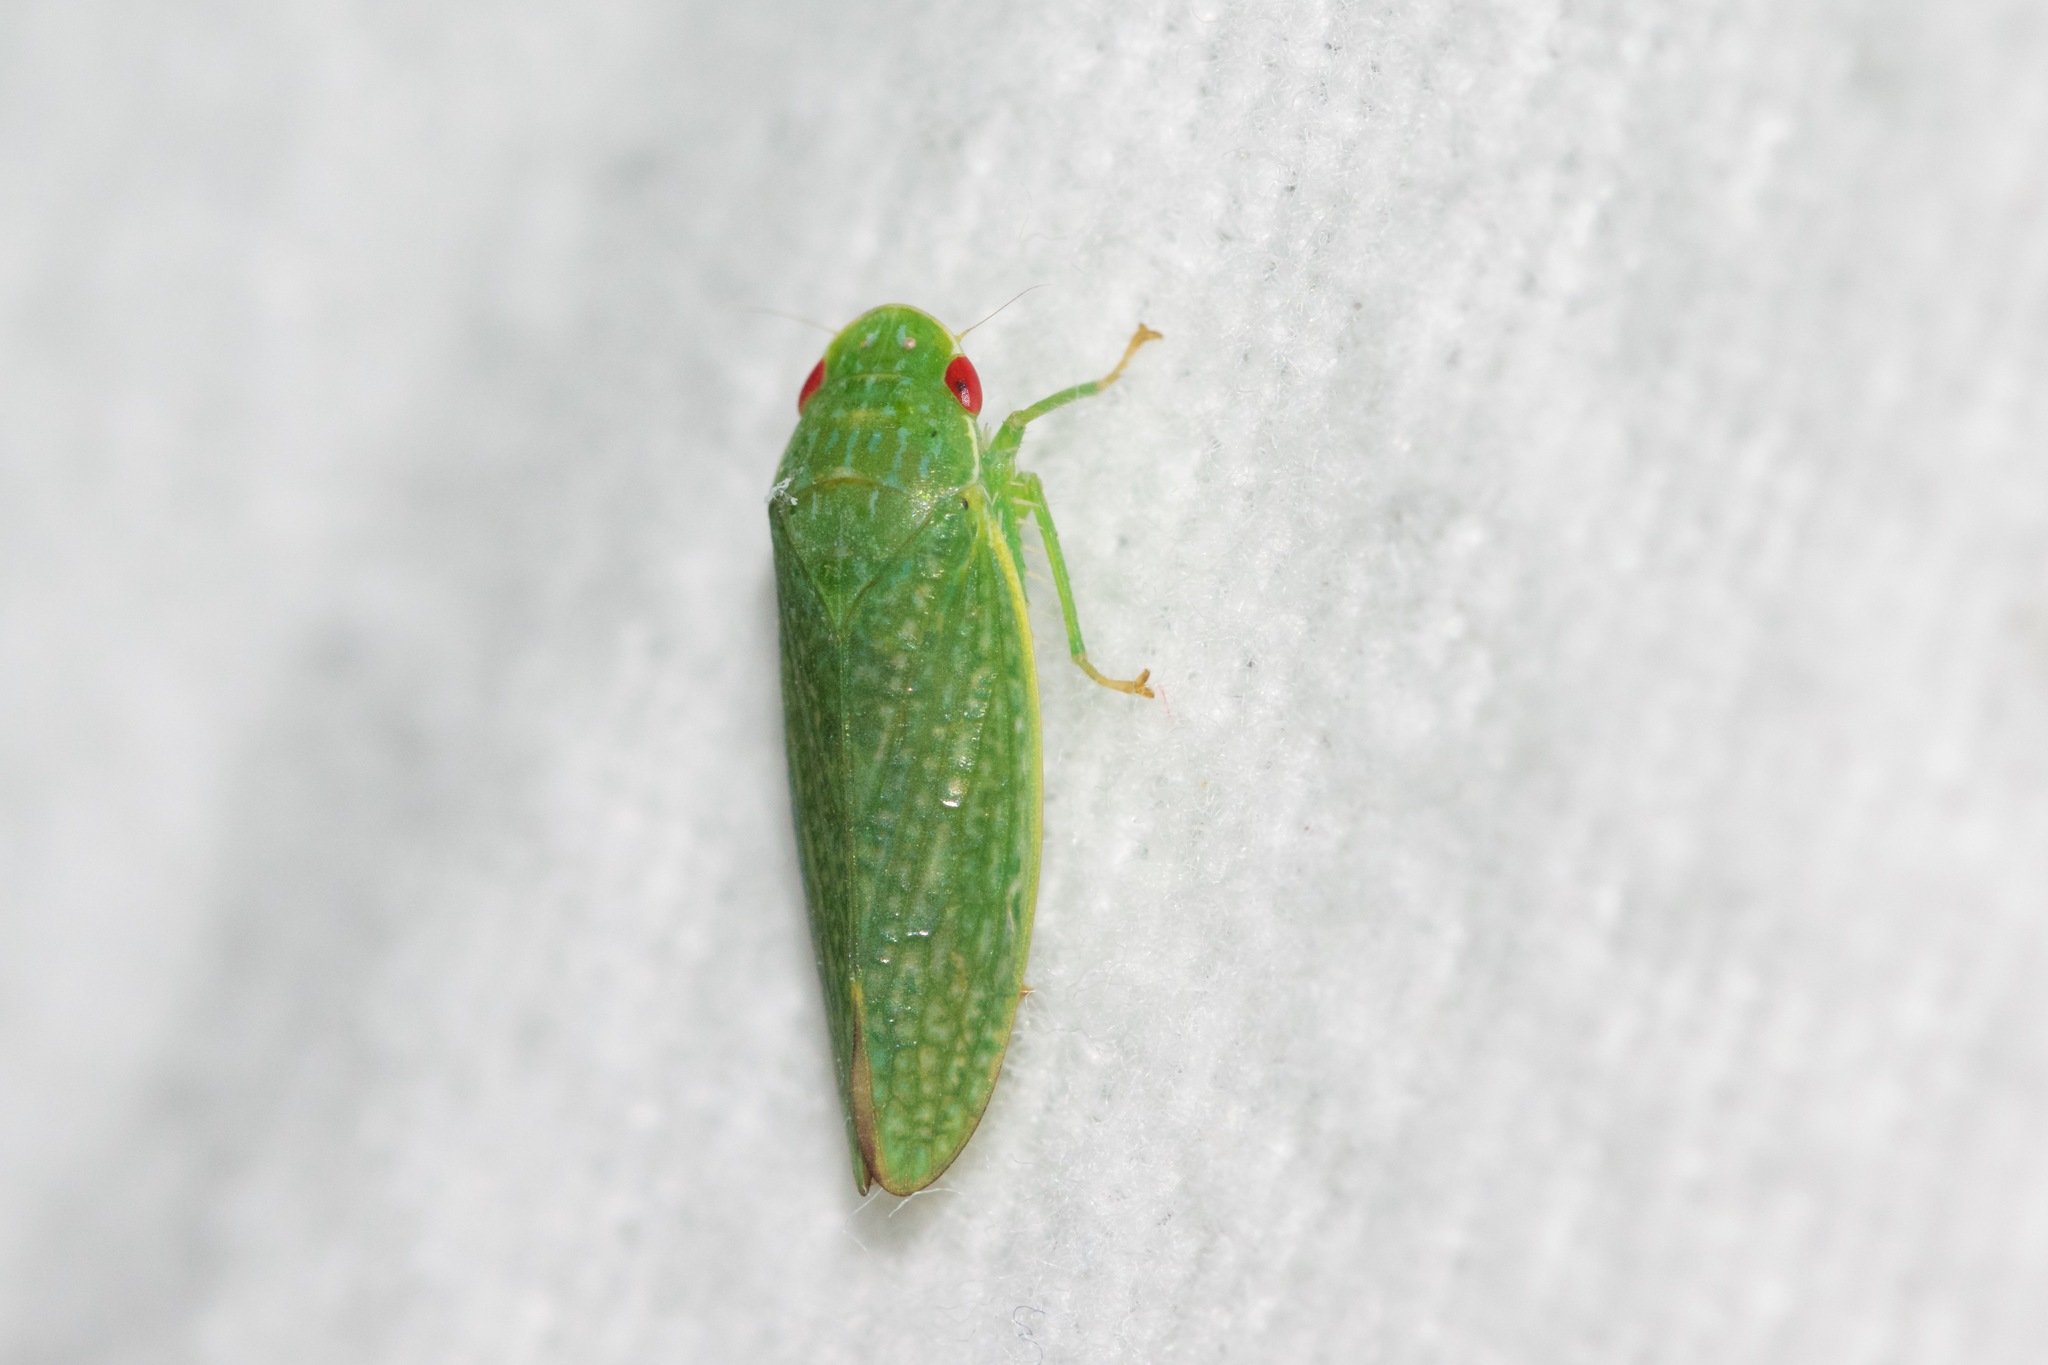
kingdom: Animalia
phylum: Arthropoda
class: Insecta
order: Hemiptera
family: Cicadellidae
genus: Rugosana
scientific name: Rugosana querci
